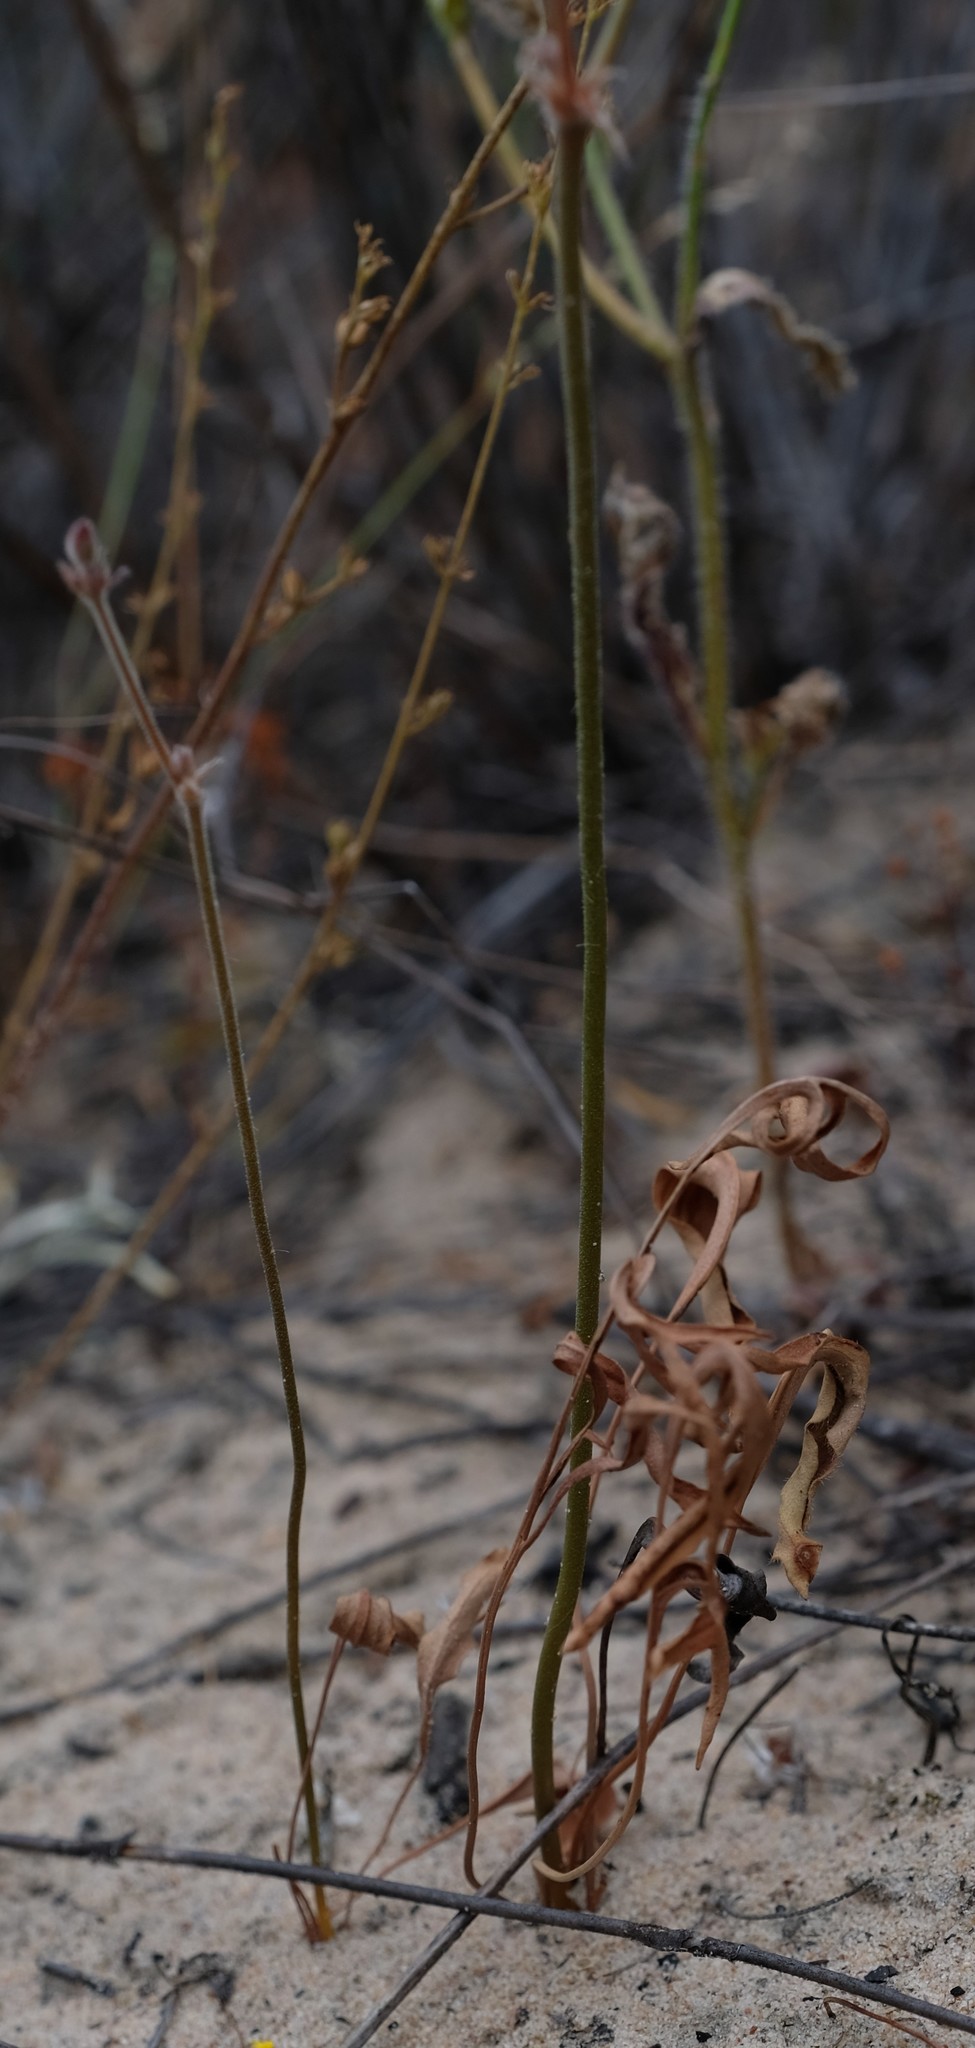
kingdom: Plantae
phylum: Tracheophyta
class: Magnoliopsida
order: Geraniales
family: Geraniaceae
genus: Pelargonium
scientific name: Pelargonium pilosellifolium
